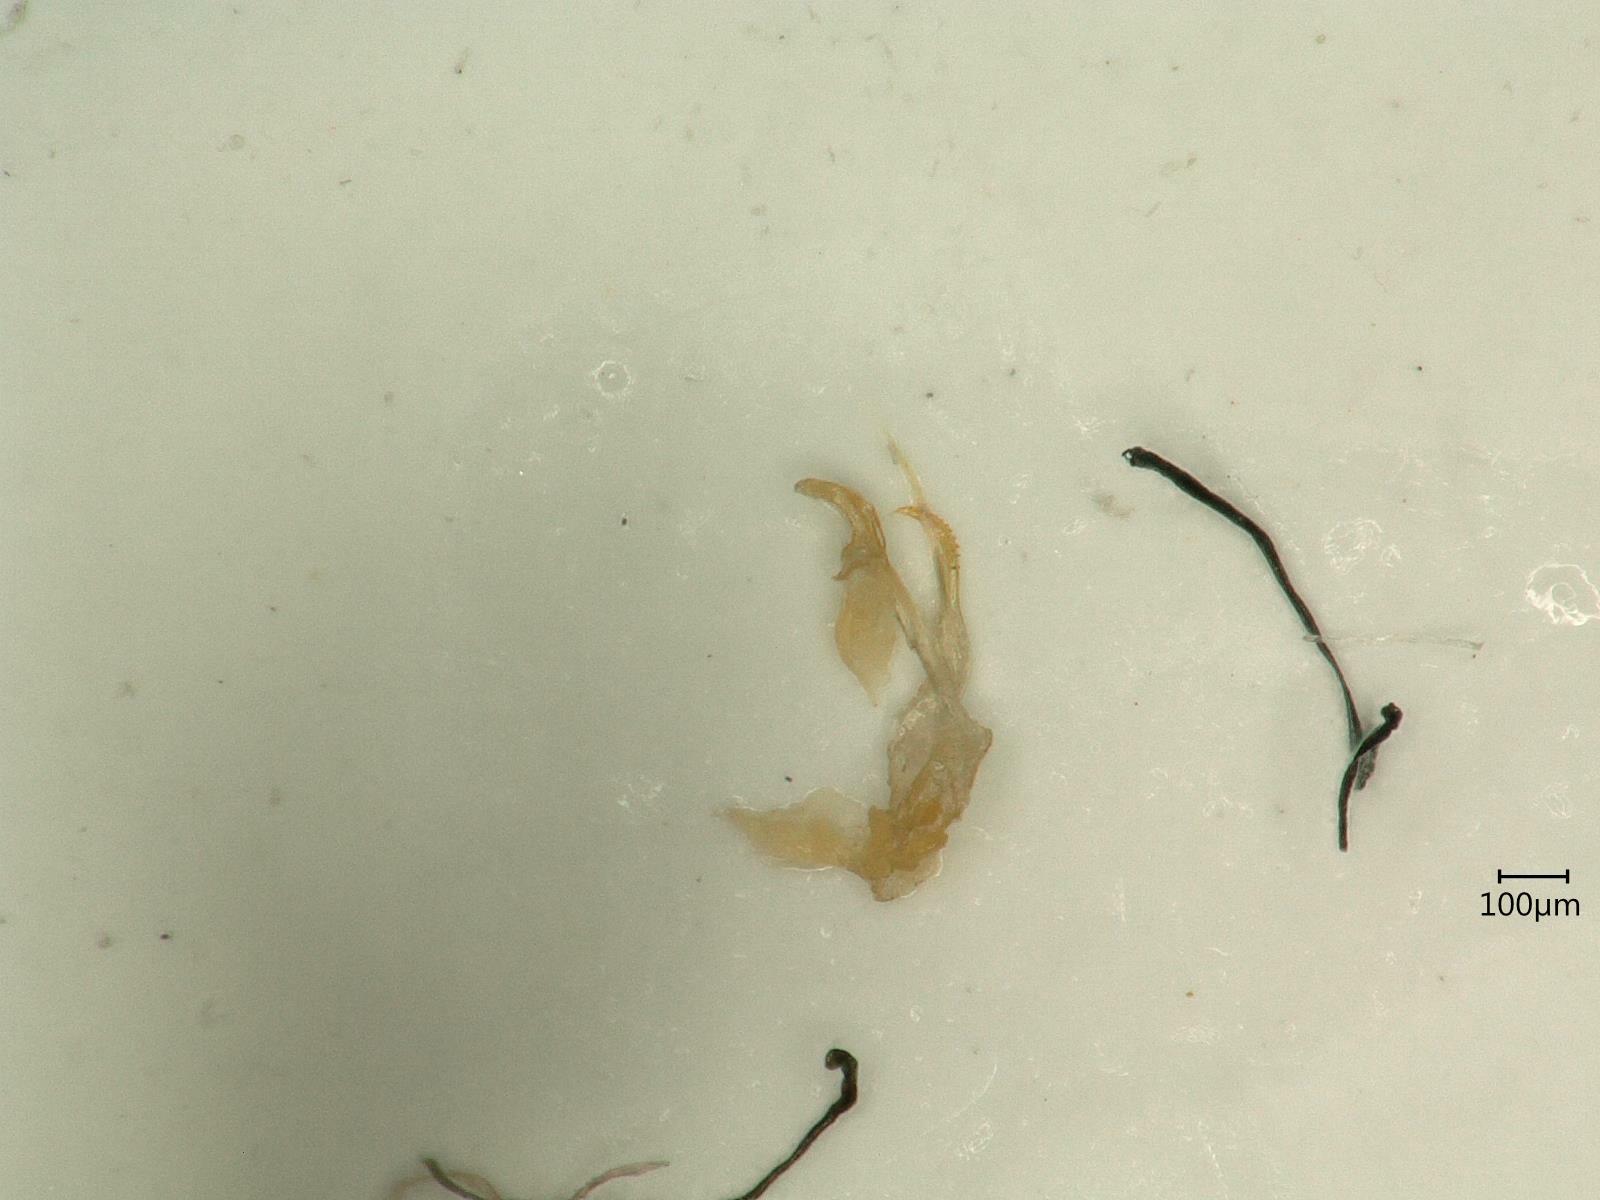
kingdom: Animalia
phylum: Arthropoda
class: Insecta
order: Hemiptera
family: Cicadellidae
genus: Kybos
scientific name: Kybos rufescens
